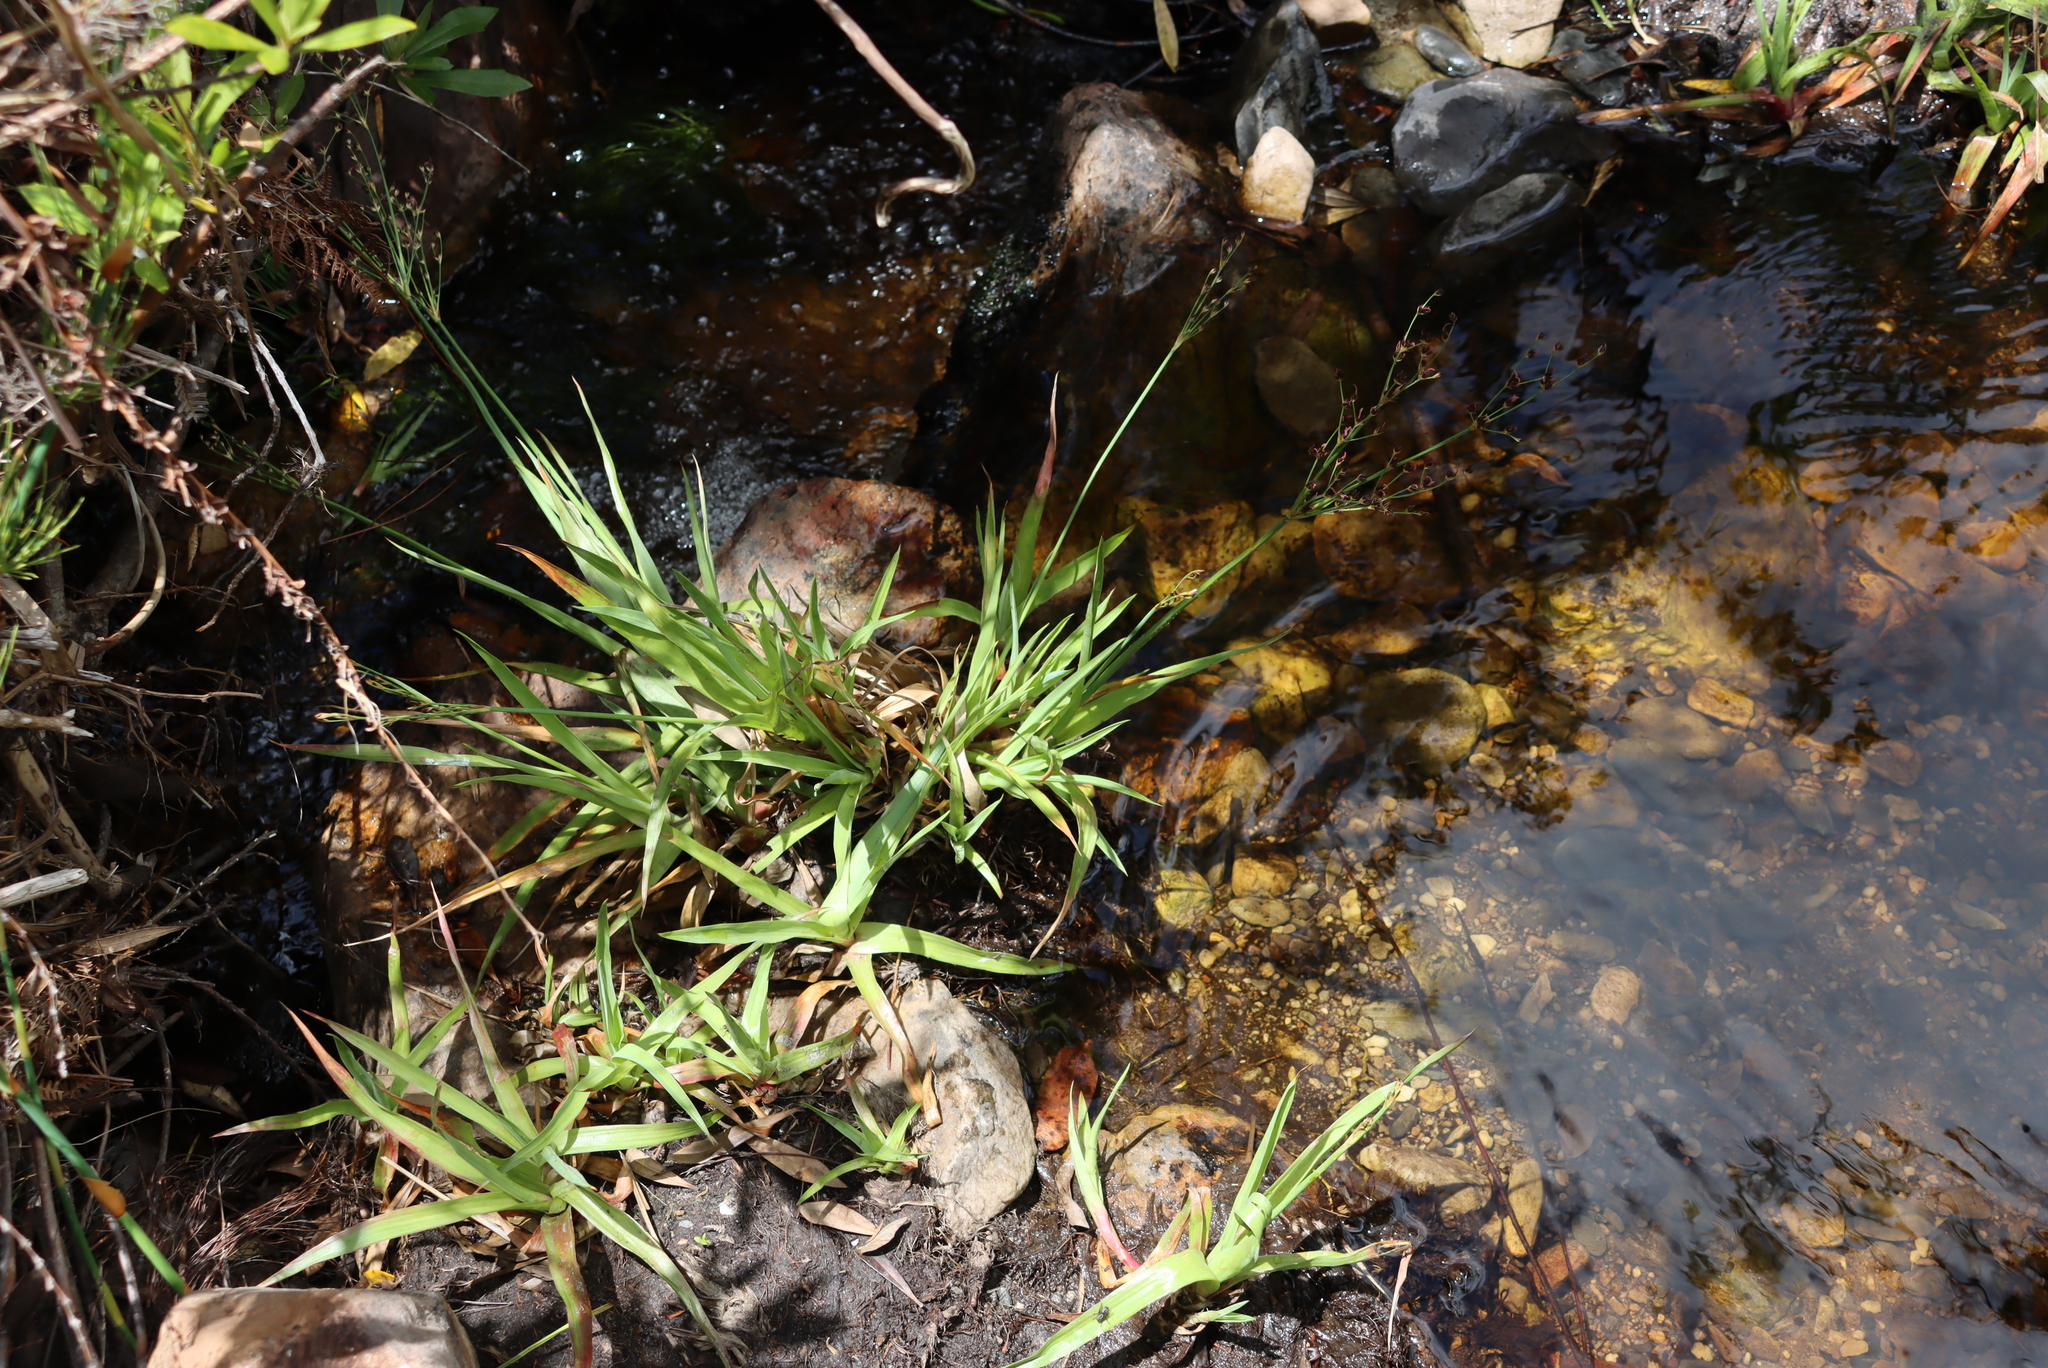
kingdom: Plantae
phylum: Tracheophyta
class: Liliopsida
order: Poales
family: Juncaceae
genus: Juncus
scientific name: Juncus lomatophyllus
